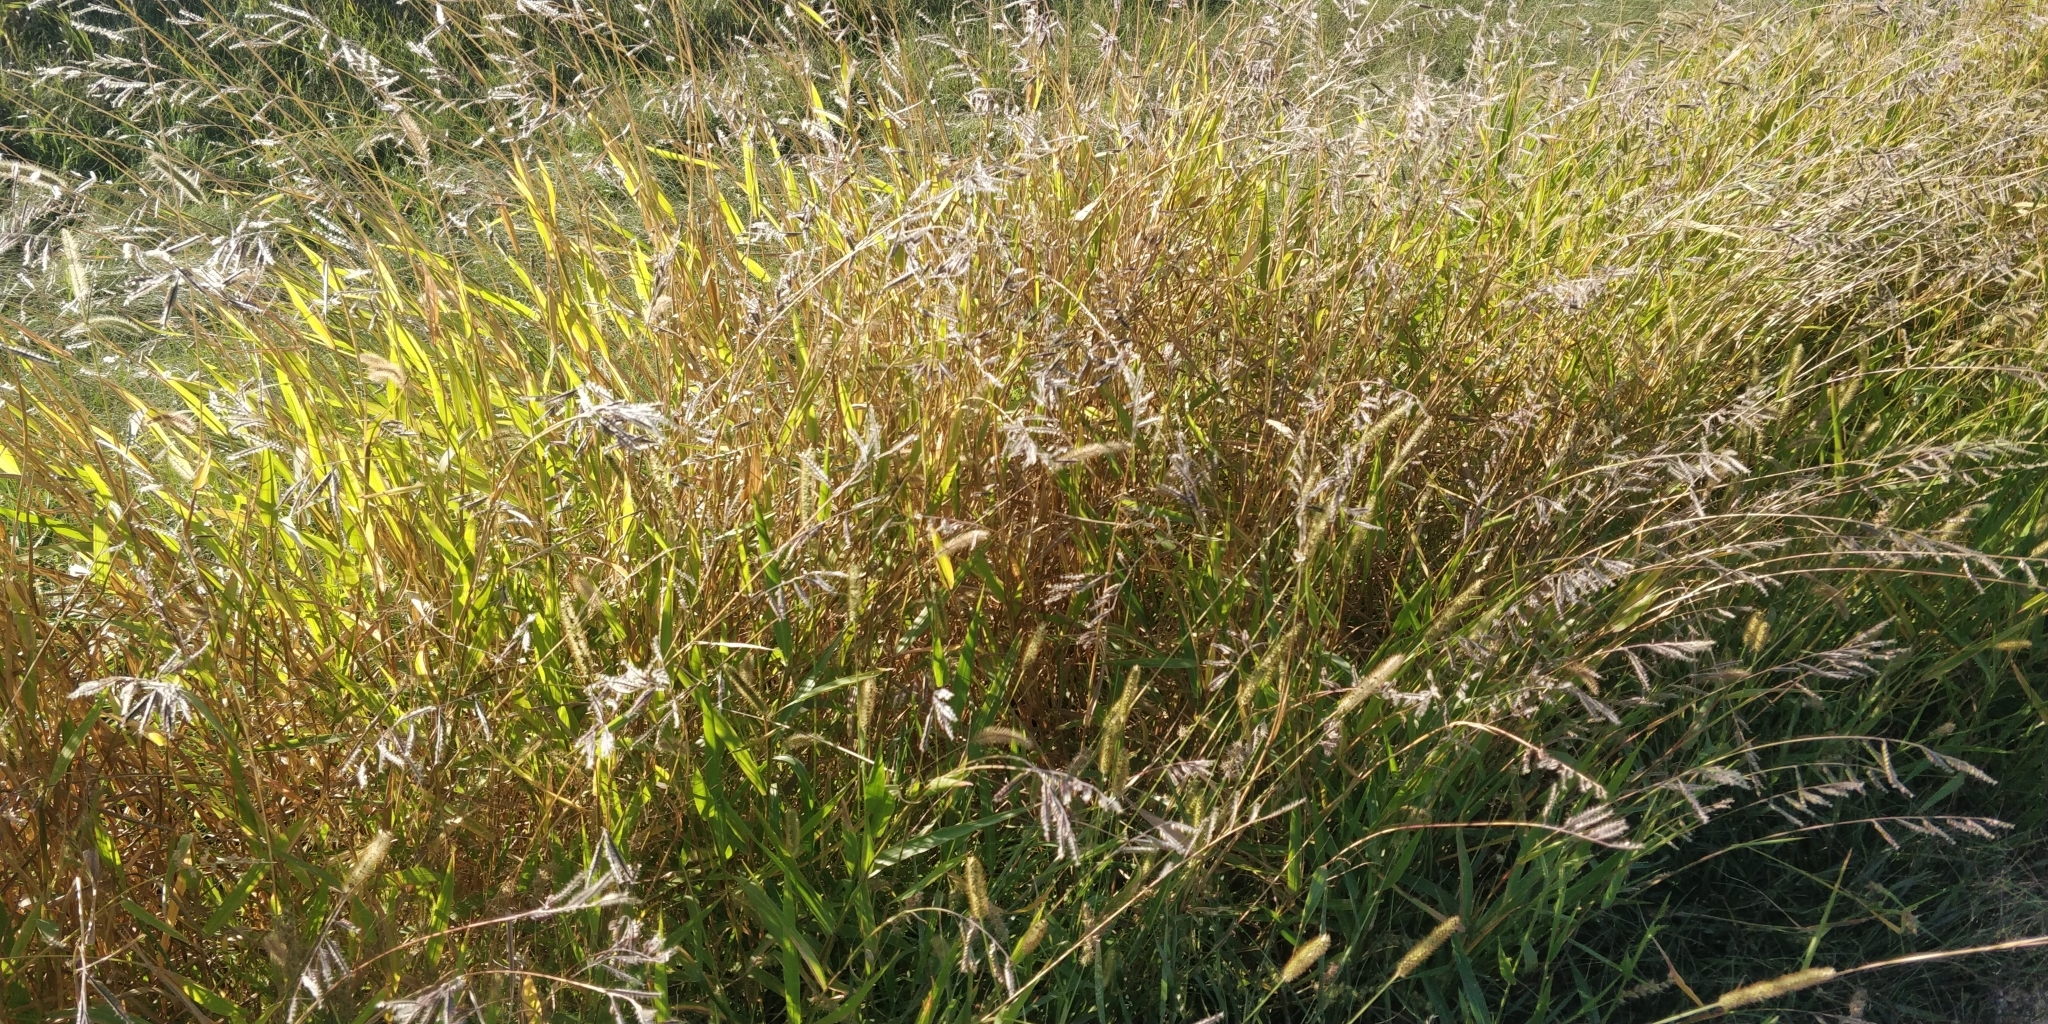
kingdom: Plantae
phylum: Tracheophyta
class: Liliopsida
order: Poales
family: Poaceae
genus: Eriochloa
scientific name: Eriochloa villosa
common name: Hairy cupgrass
